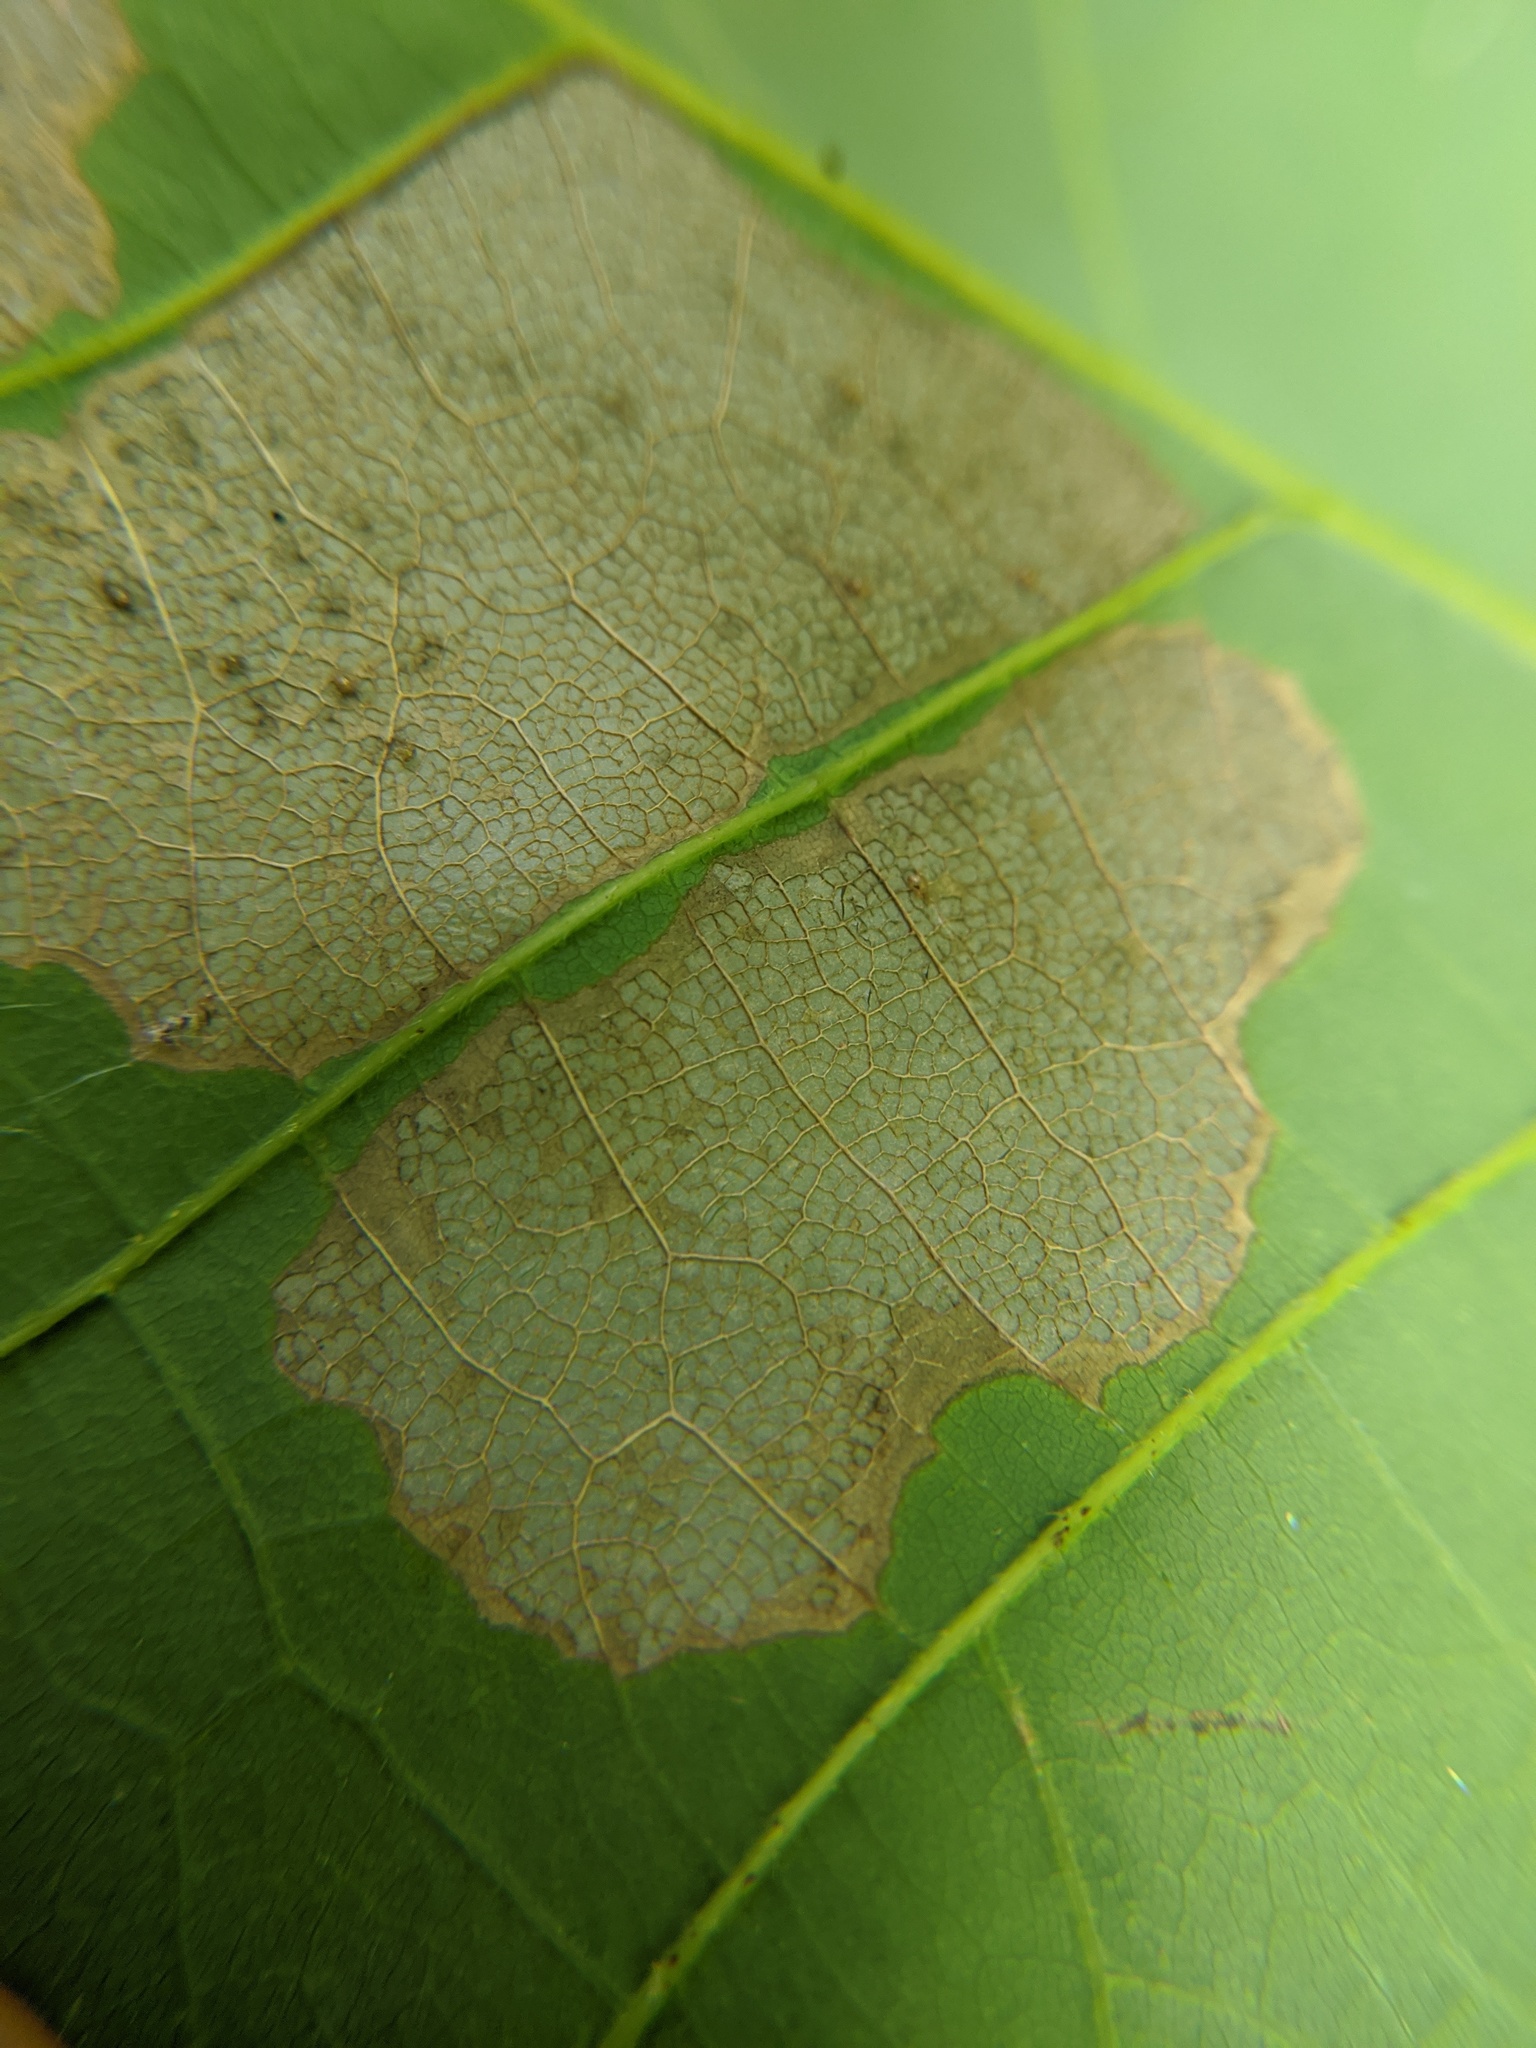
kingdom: Animalia
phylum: Arthropoda
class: Insecta
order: Lepidoptera
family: Bucculatricidae
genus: Bucculatrix
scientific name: Bucculatrix ainsliella
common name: Oak skeletonizer
